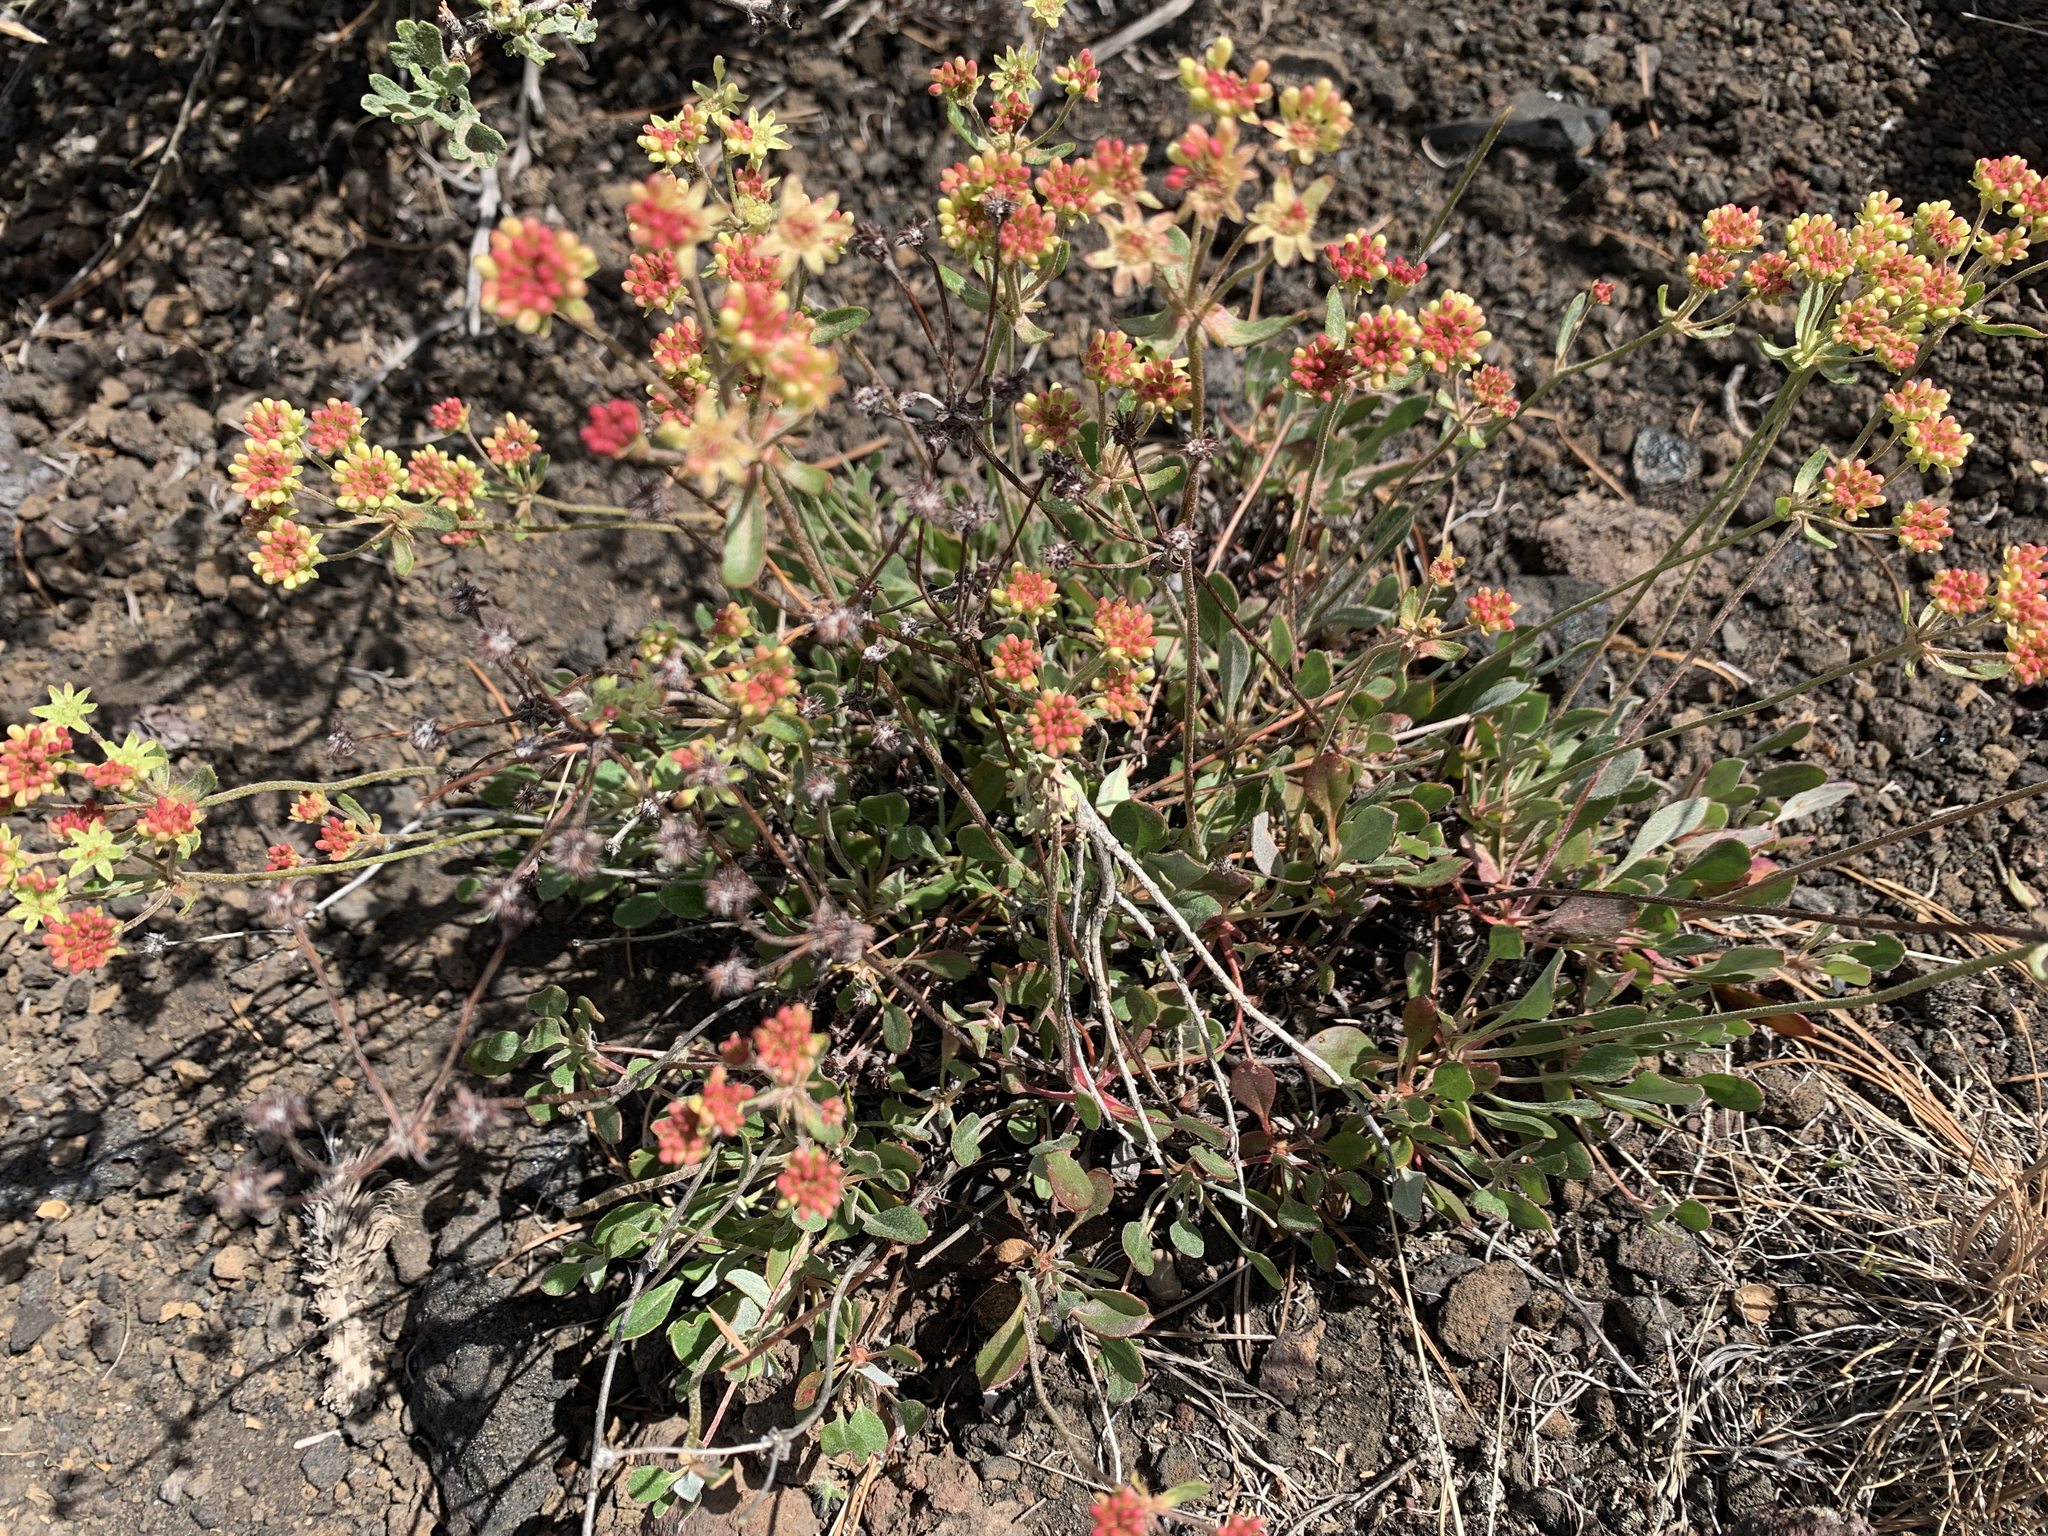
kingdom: Plantae
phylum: Tracheophyta
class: Magnoliopsida
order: Caryophyllales
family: Polygonaceae
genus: Eriogonum
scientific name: Eriogonum umbellatum
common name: Sulfur-buckwheat
